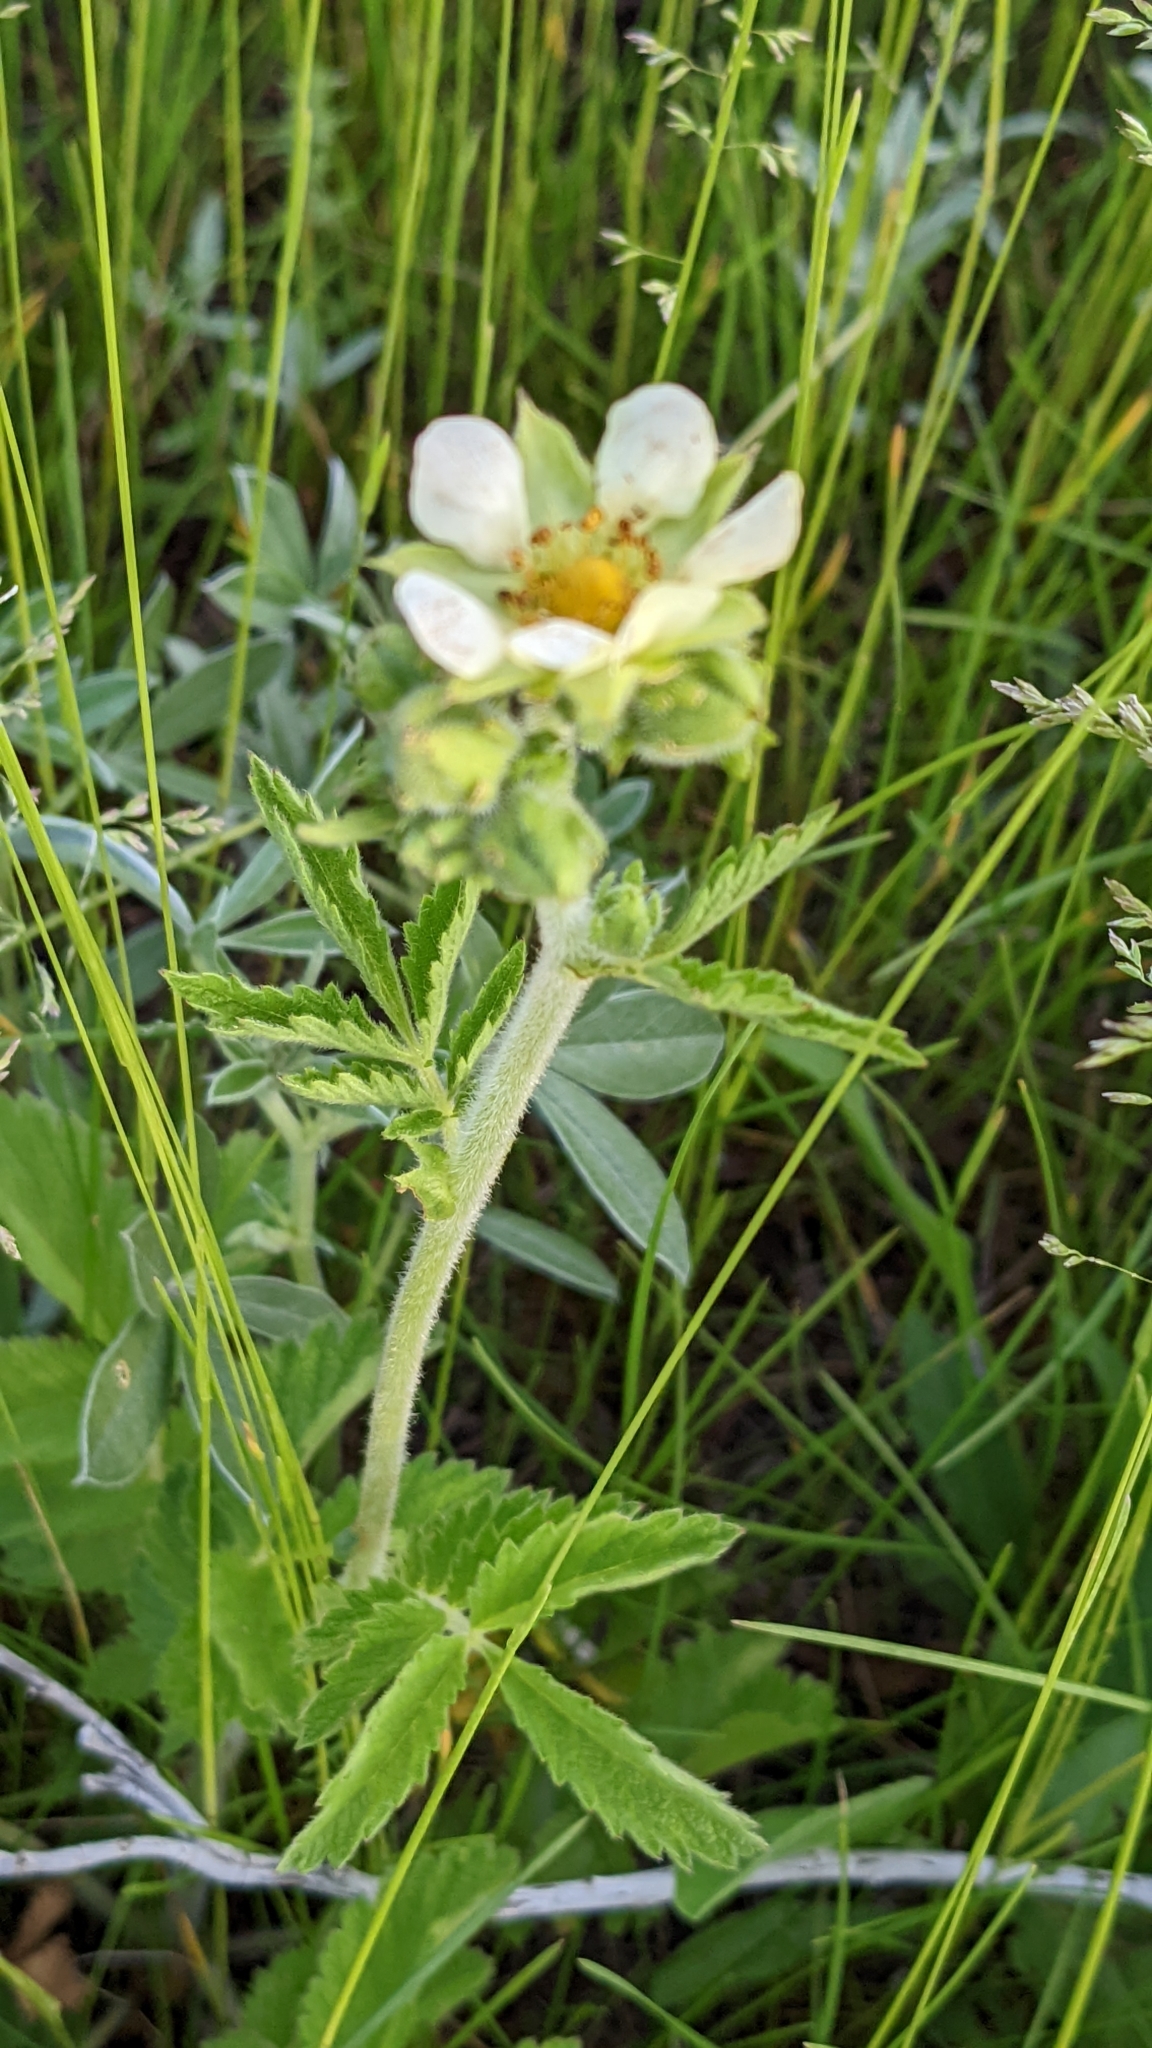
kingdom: Plantae
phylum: Tracheophyta
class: Magnoliopsida
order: Rosales
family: Rosaceae
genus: Drymocallis
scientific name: Drymocallis arguta
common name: Tall cinquefoil
